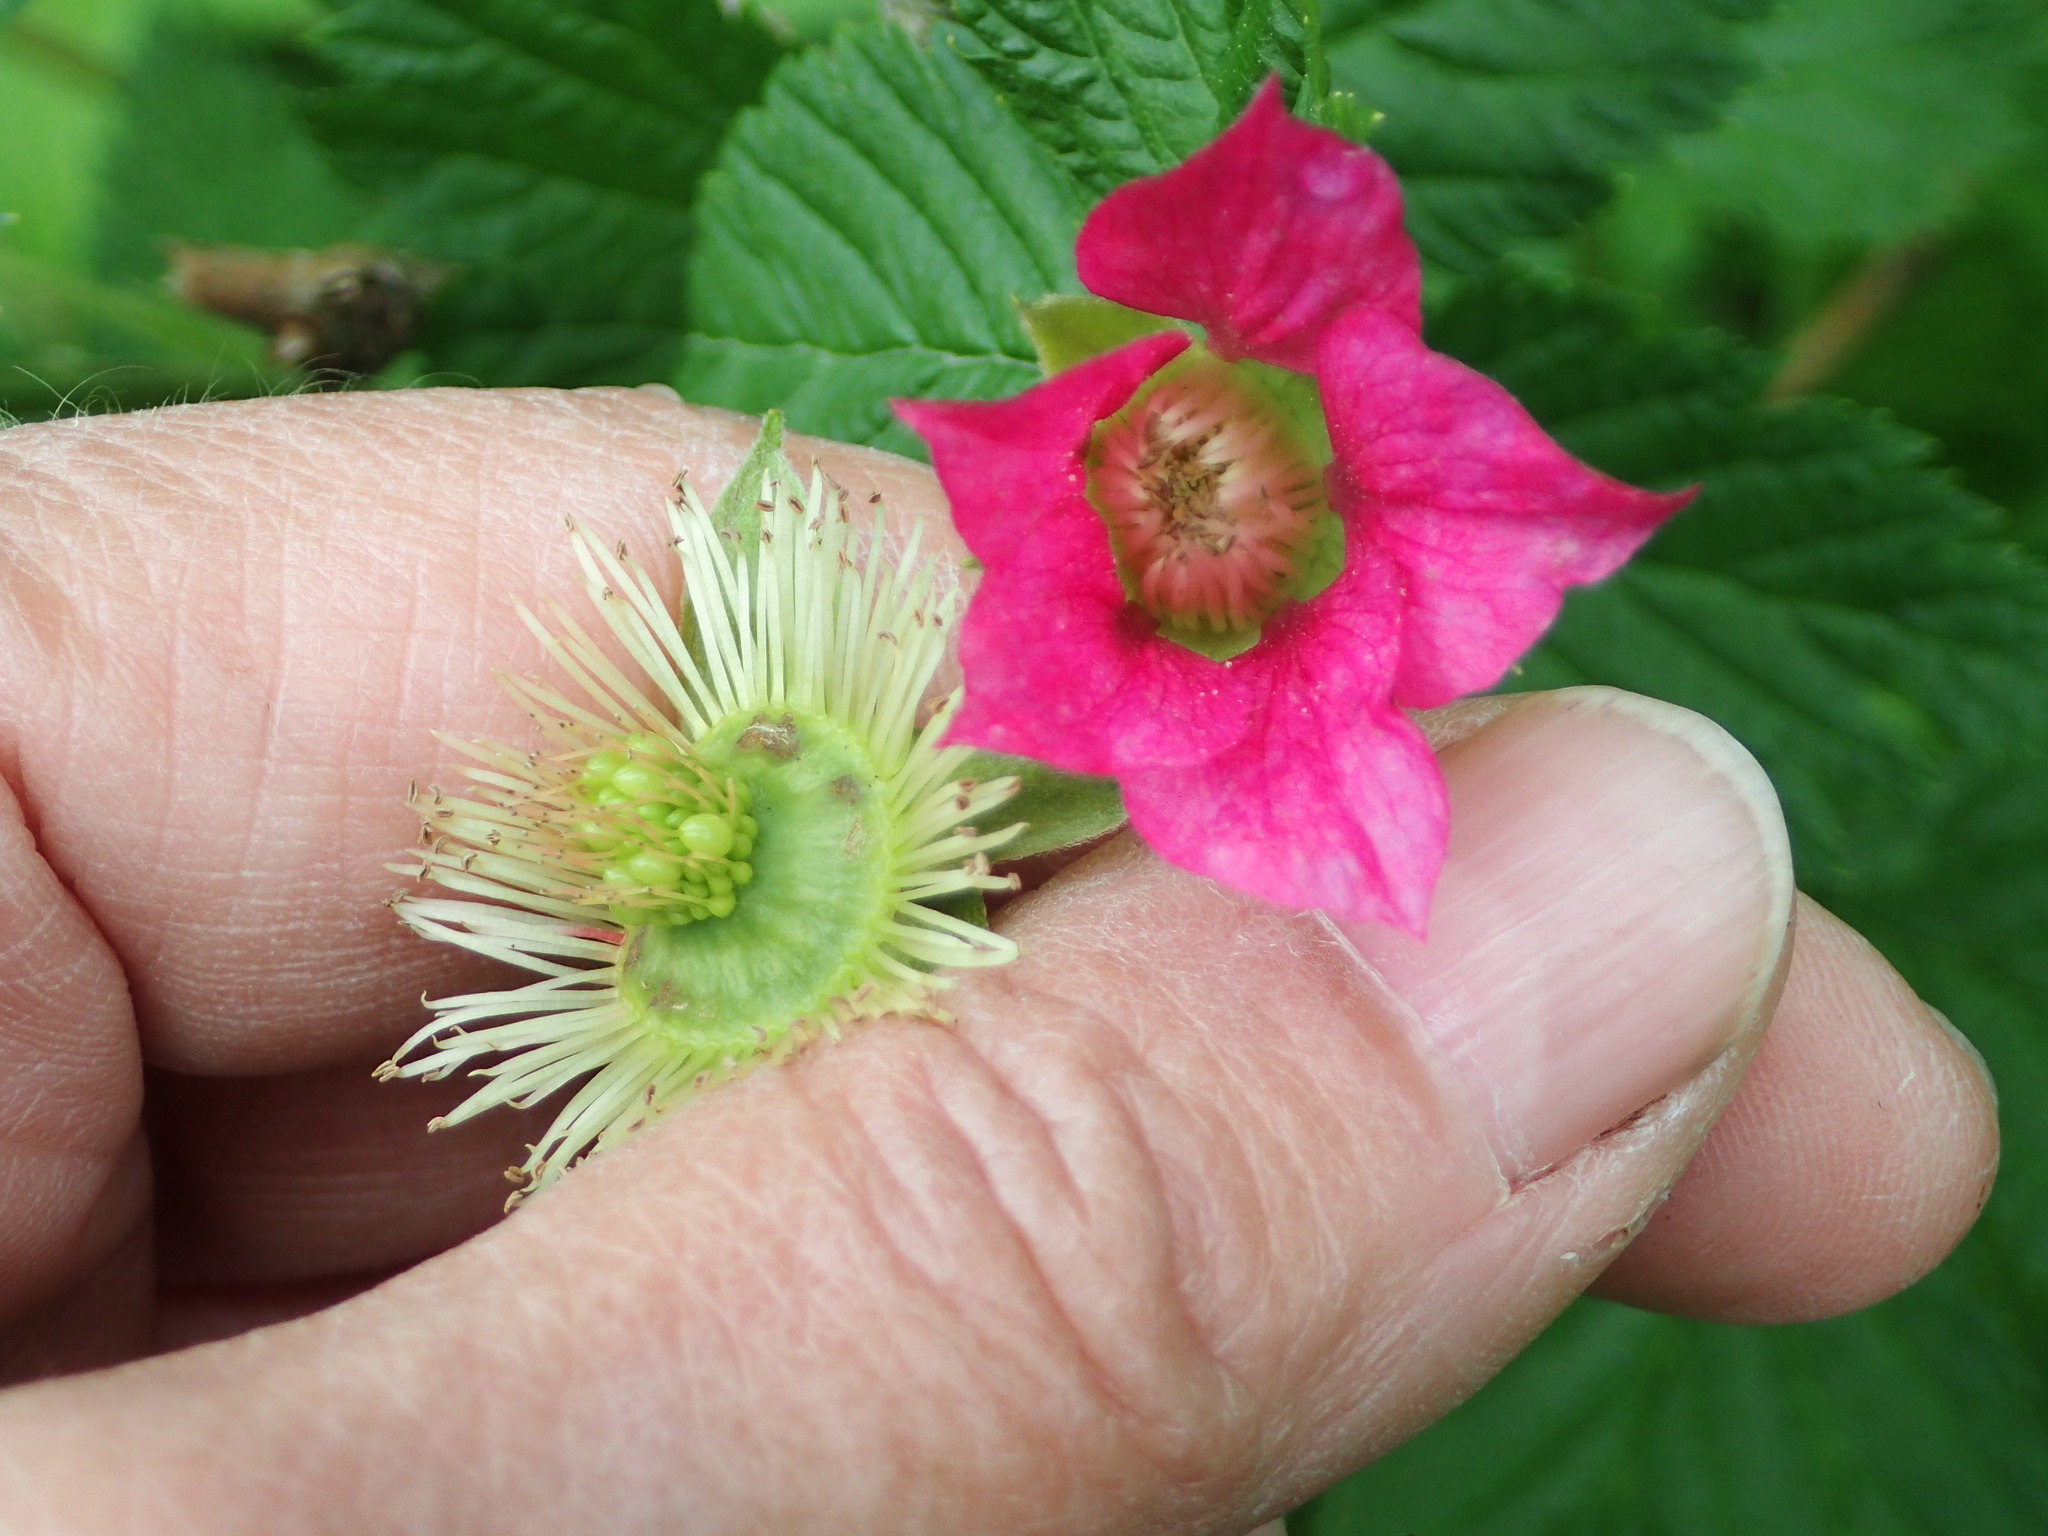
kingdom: Plantae
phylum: Tracheophyta
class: Magnoliopsida
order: Rosales
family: Rosaceae
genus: Rubus
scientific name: Rubus spectabilis
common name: Salmonberry
